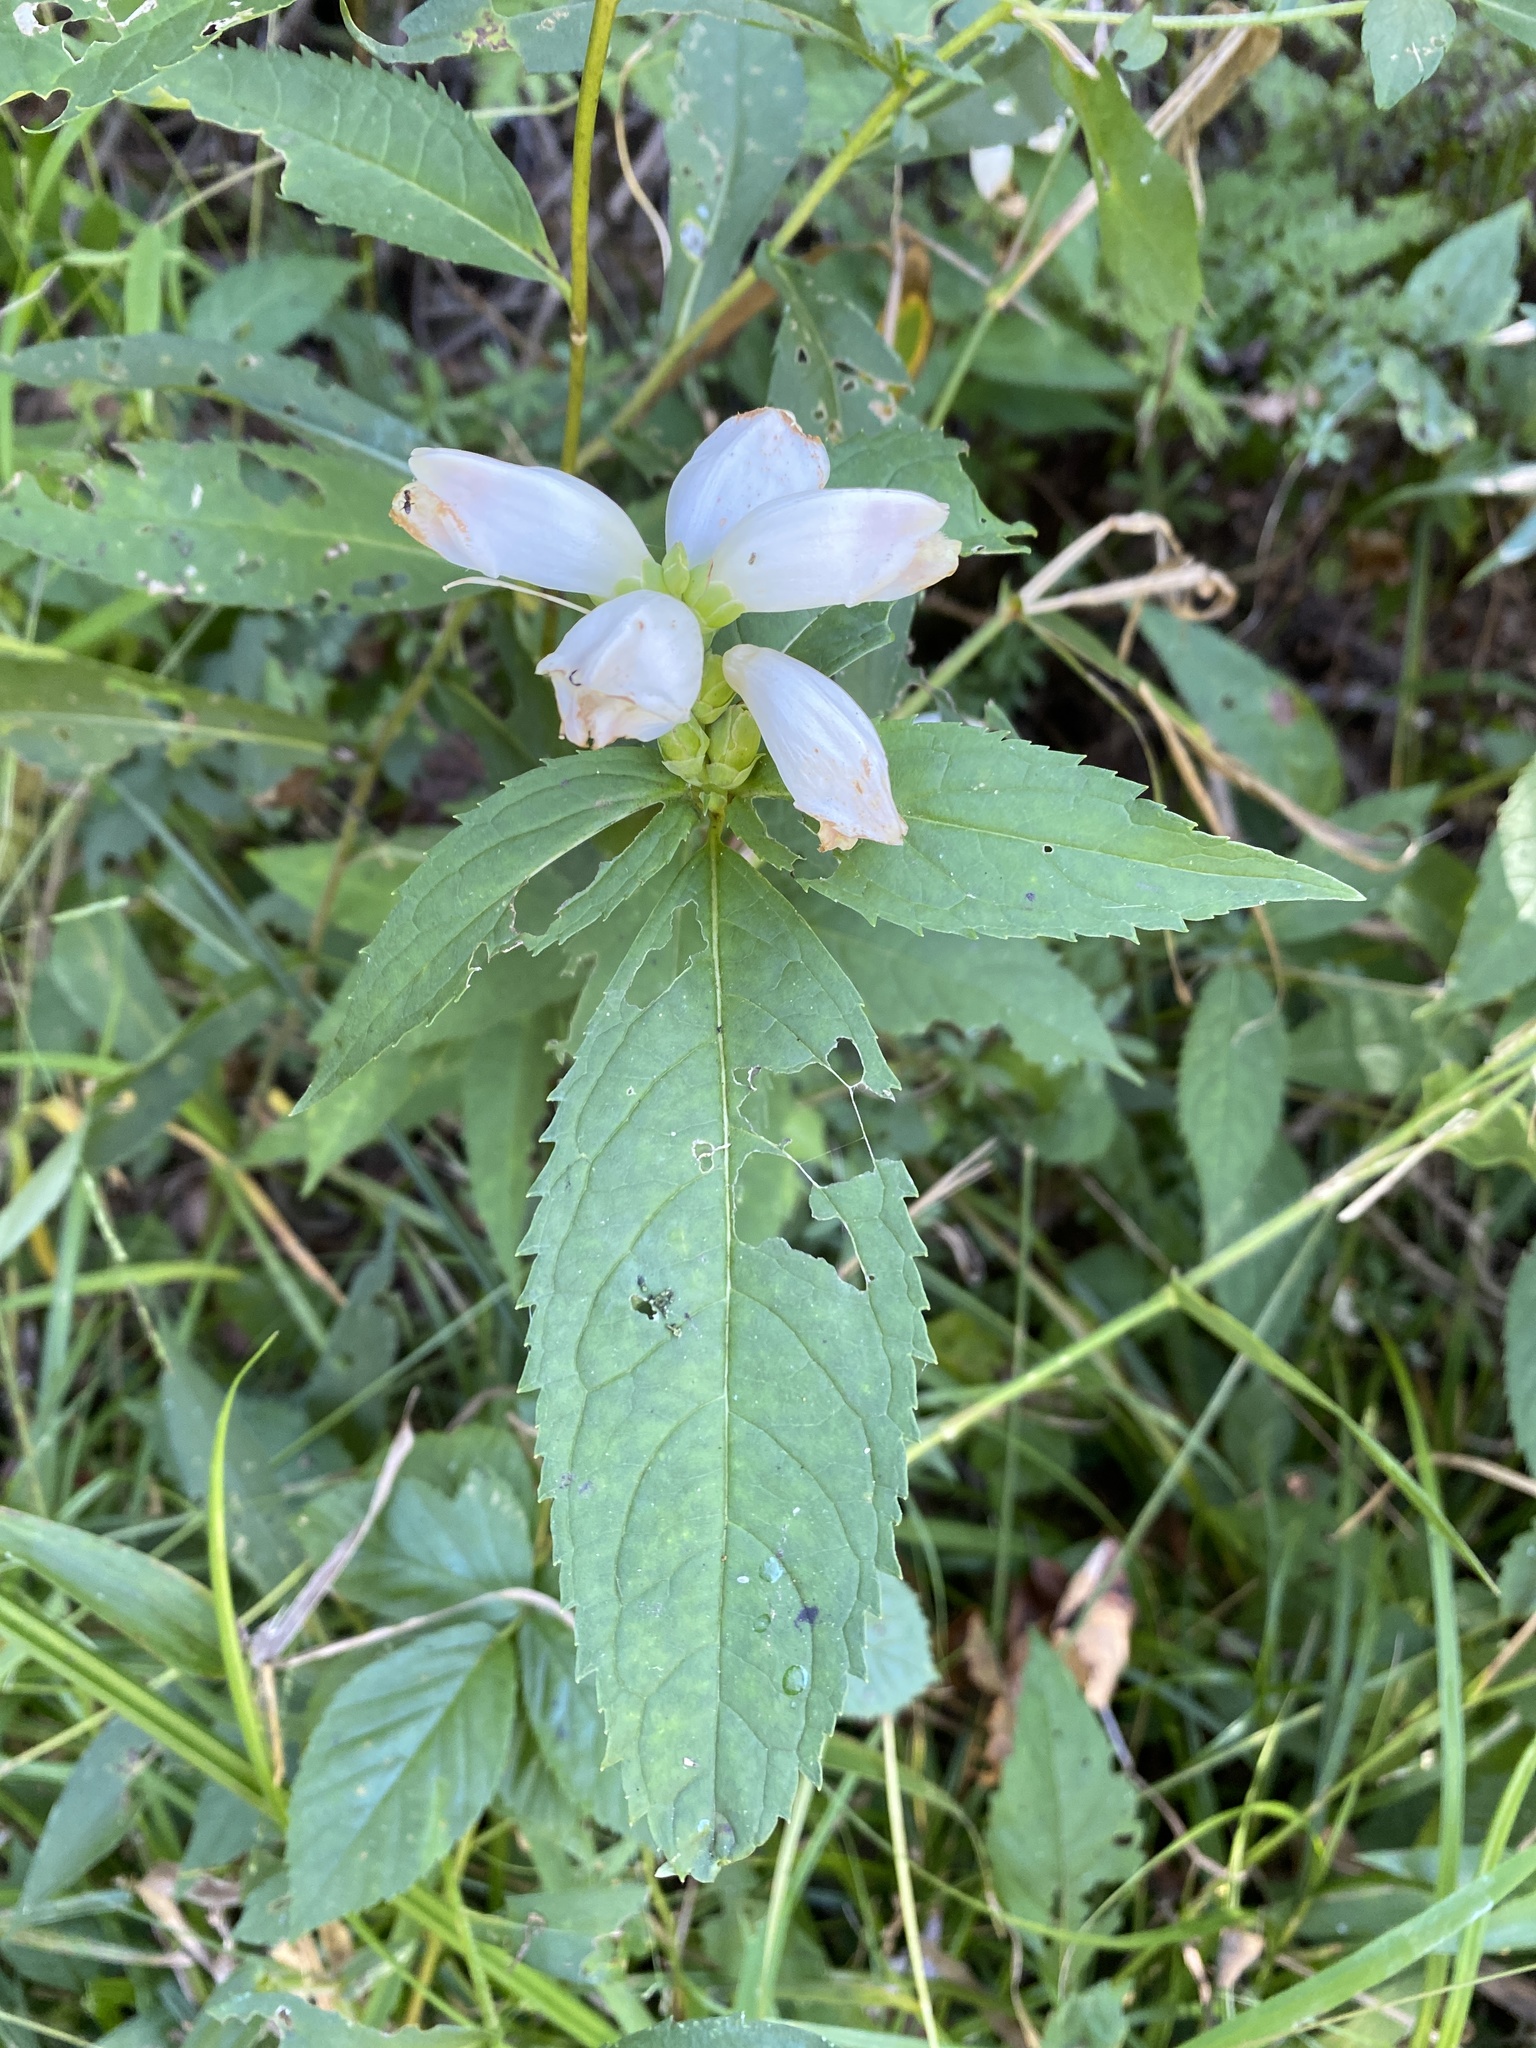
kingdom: Plantae
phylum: Tracheophyta
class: Magnoliopsida
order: Lamiales
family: Plantaginaceae
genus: Chelone
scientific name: Chelone glabra
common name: Snakehead
